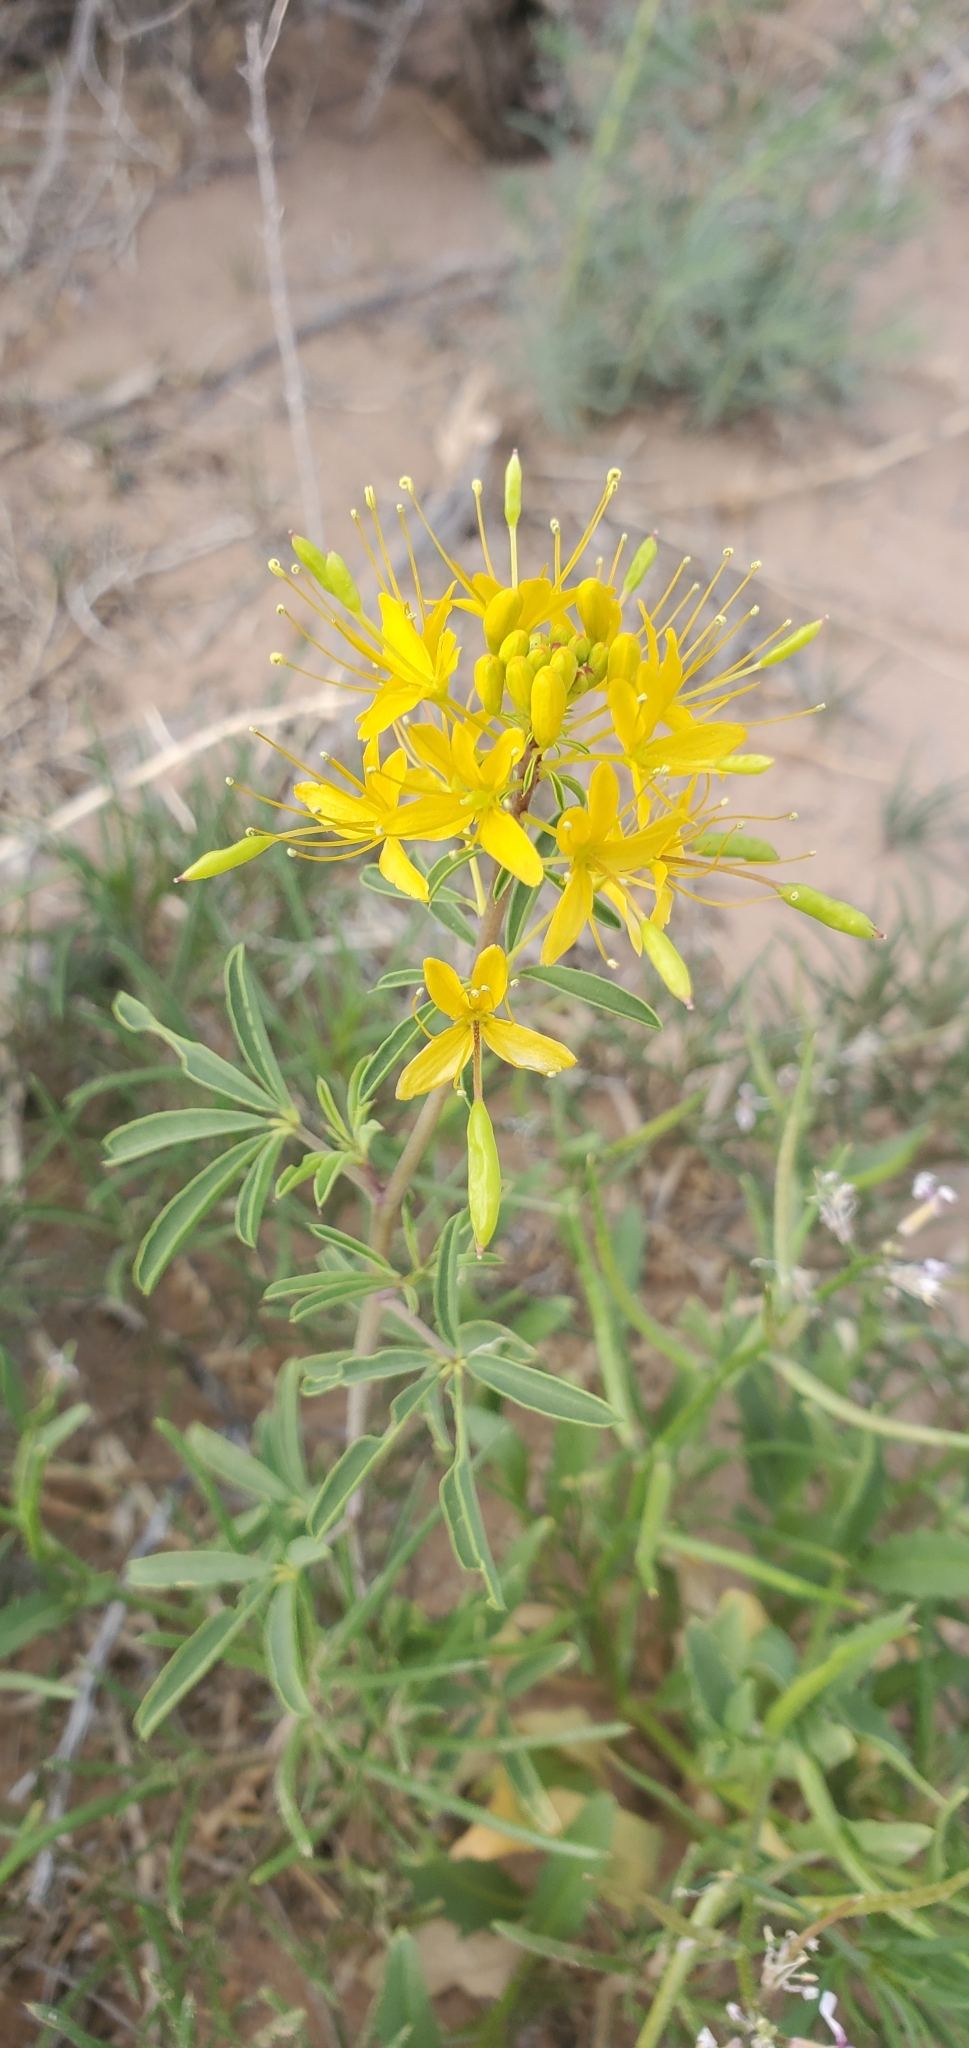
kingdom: Plantae
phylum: Tracheophyta
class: Magnoliopsida
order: Brassicales
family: Cleomaceae
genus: Cleomella
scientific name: Cleomella lutea
